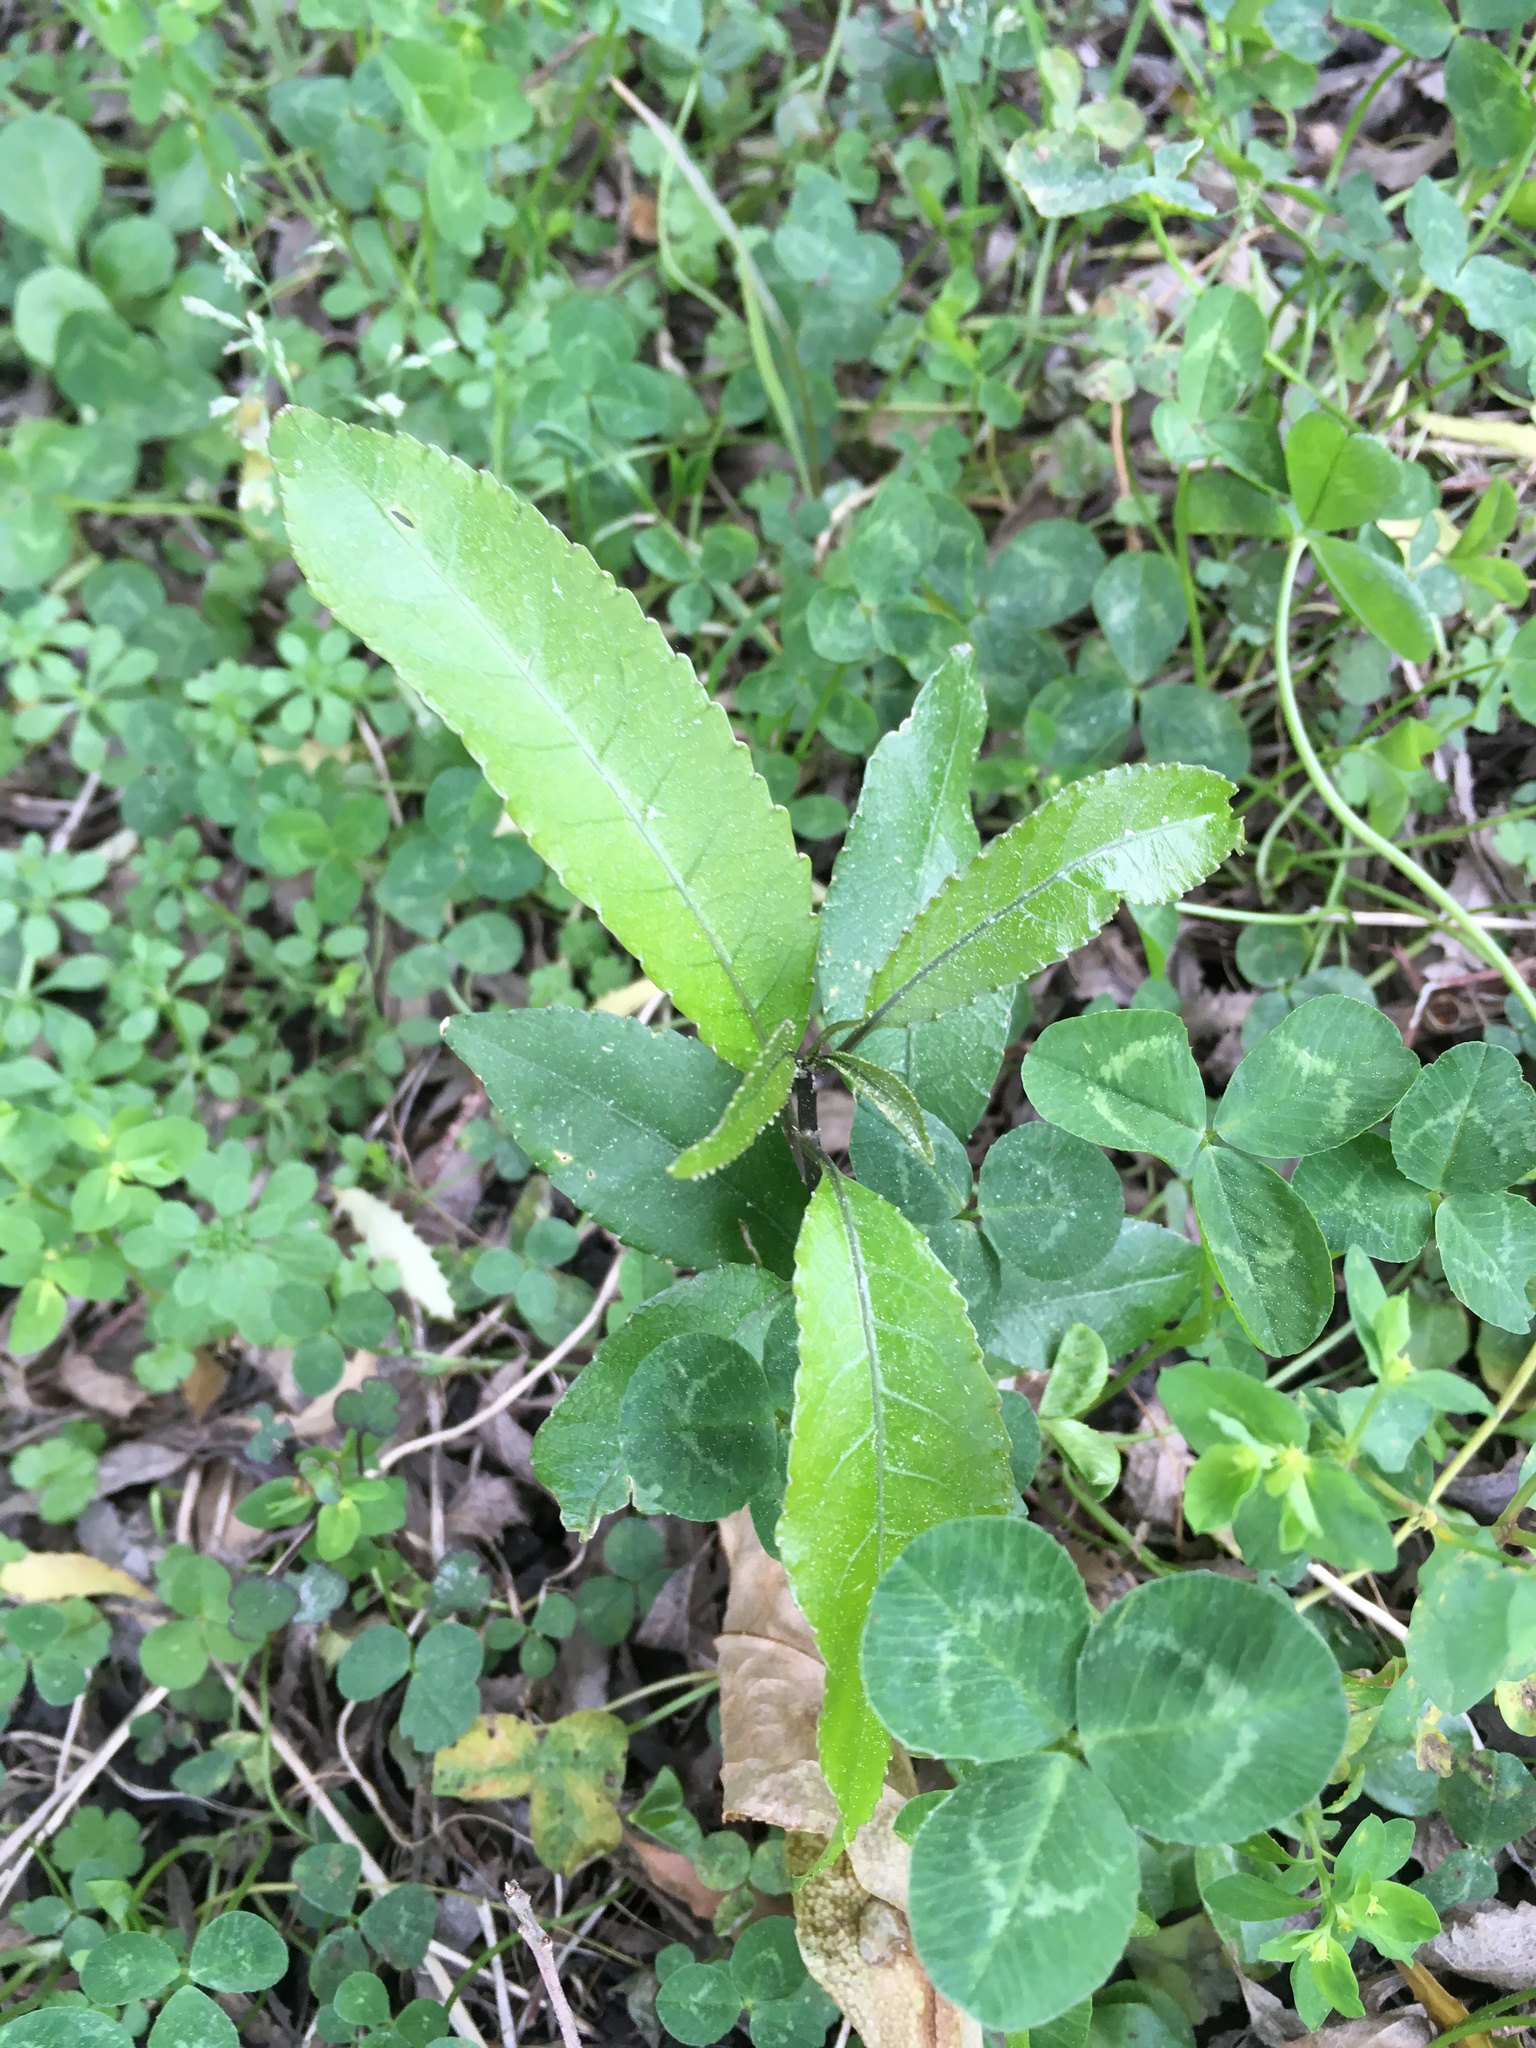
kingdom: Plantae
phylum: Tracheophyta
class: Magnoliopsida
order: Malpighiales
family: Violaceae
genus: Melicytus
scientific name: Melicytus ramiflorus
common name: Mahoe
